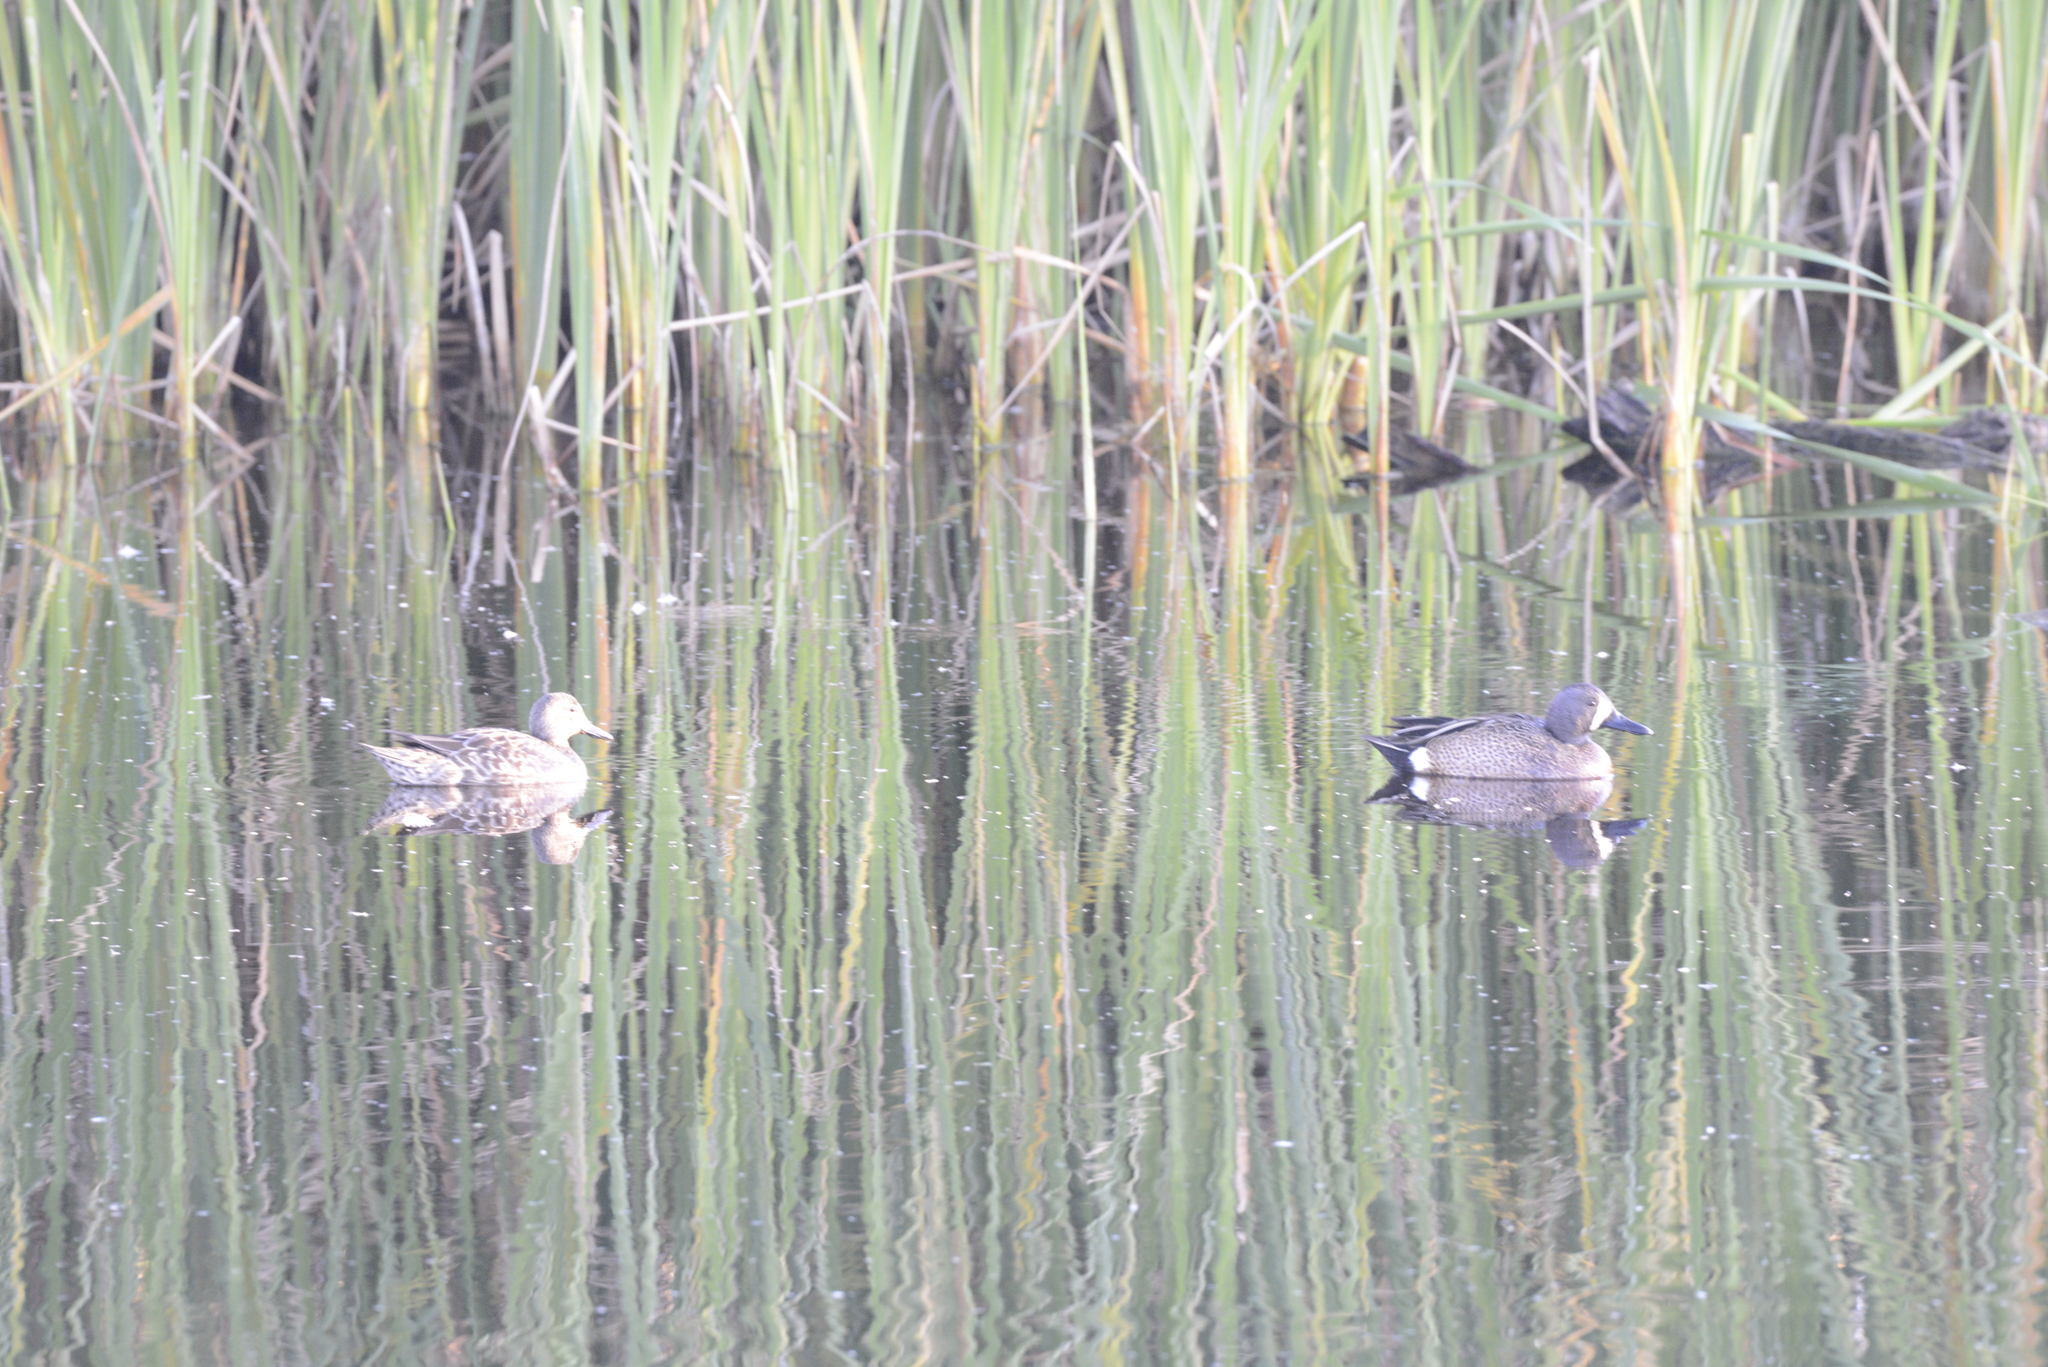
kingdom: Animalia
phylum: Chordata
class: Aves
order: Anseriformes
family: Anatidae
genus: Spatula
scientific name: Spatula discors
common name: Blue-winged teal
